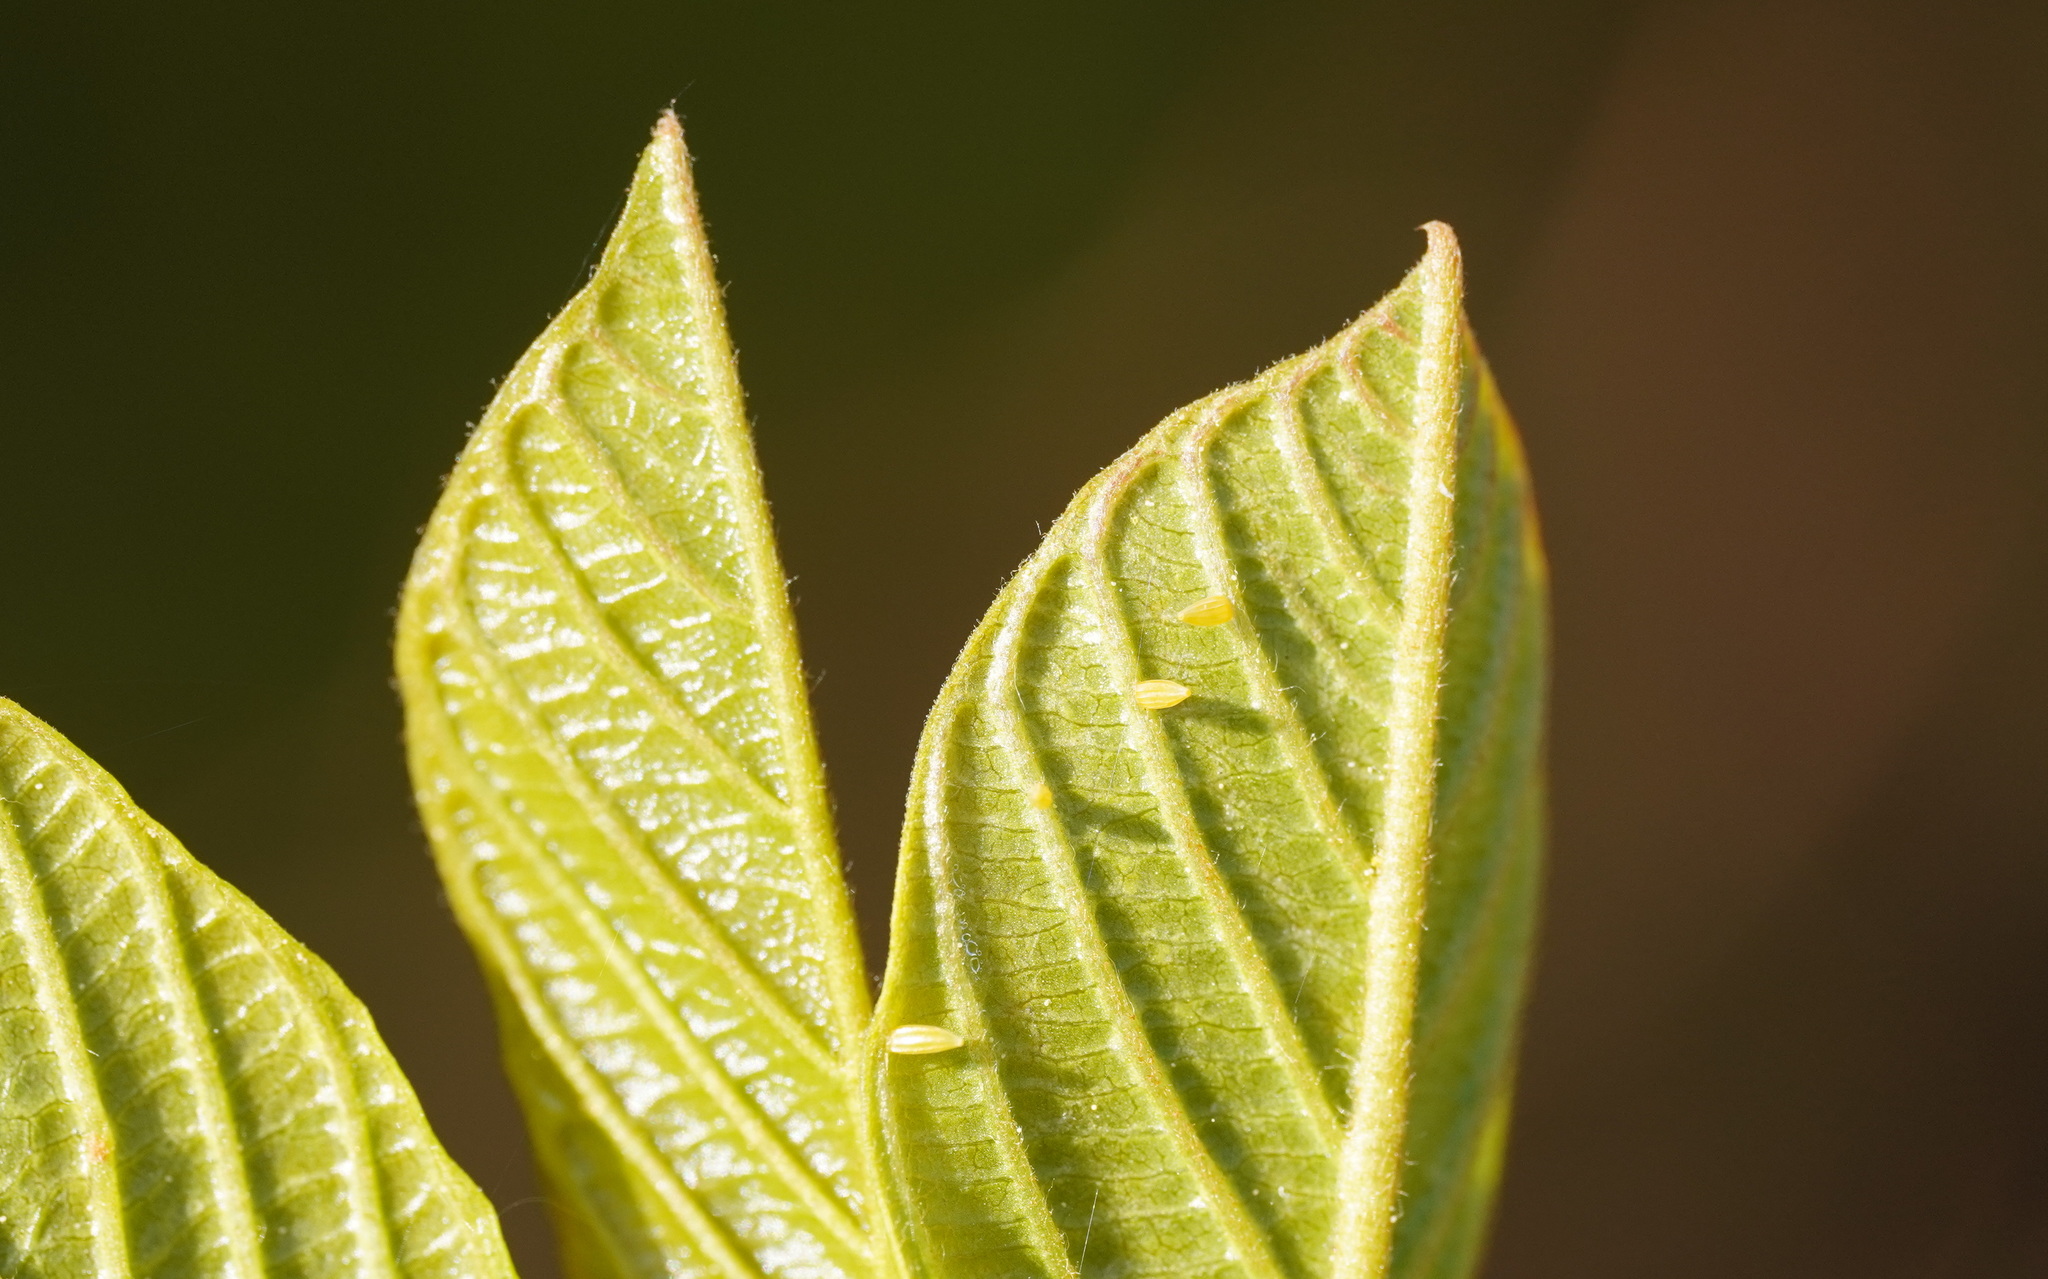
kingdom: Animalia
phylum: Arthropoda
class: Insecta
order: Lepidoptera
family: Pieridae
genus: Gonepteryx
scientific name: Gonepteryx rhamni
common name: Brimstone
